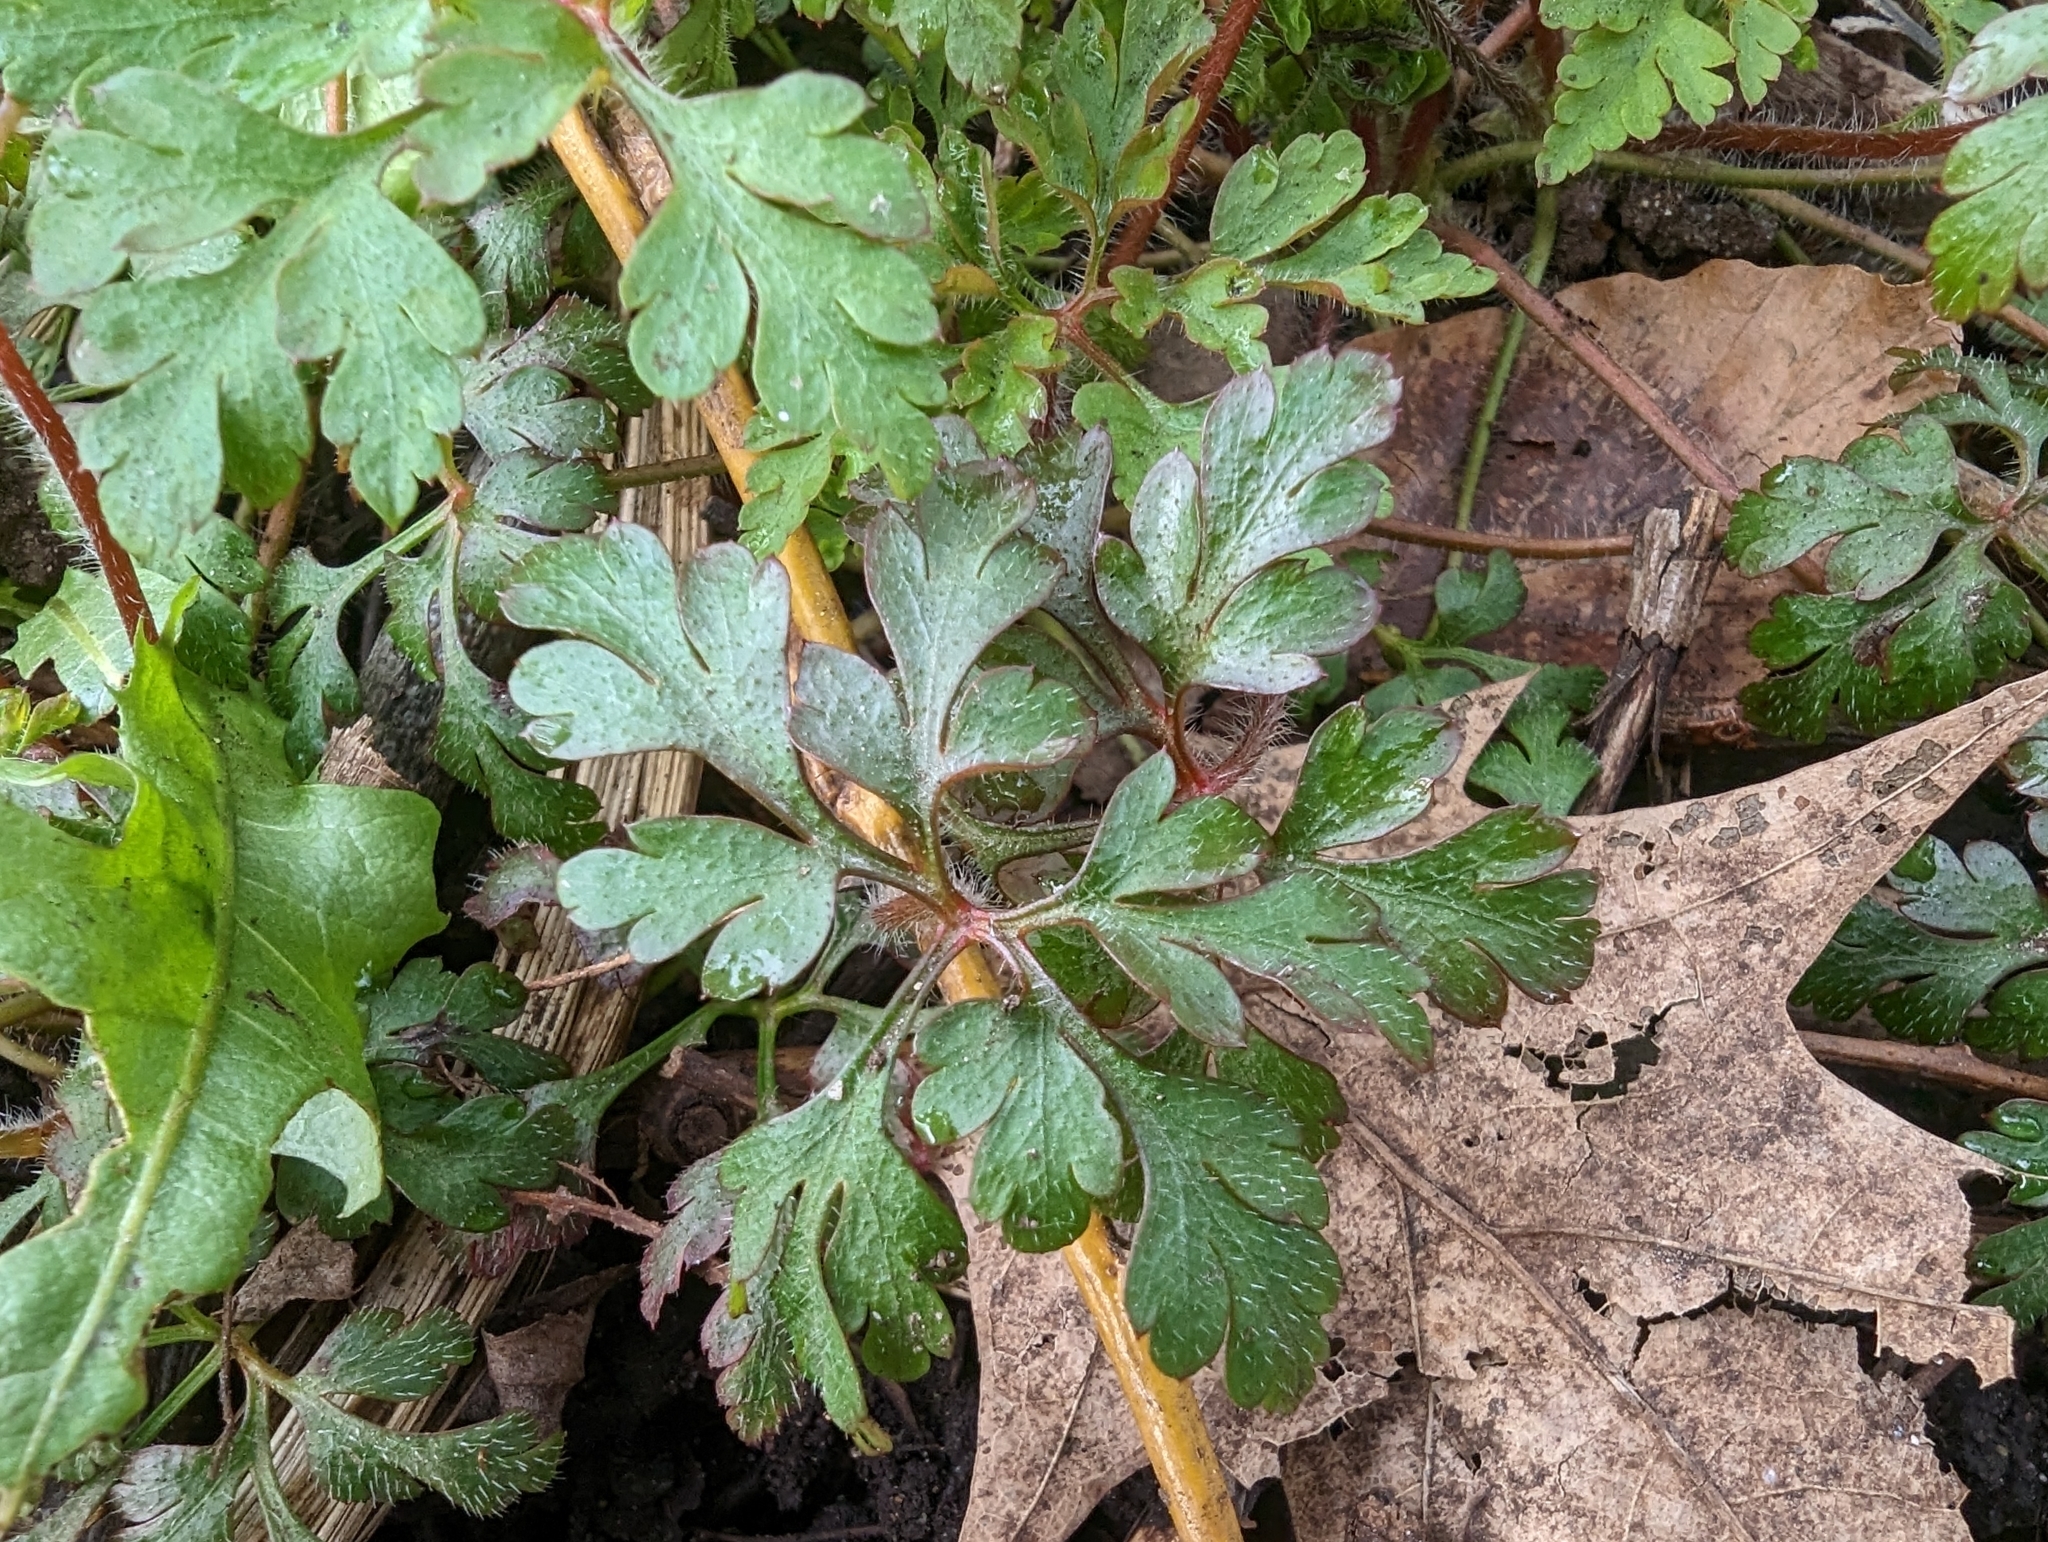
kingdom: Plantae
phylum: Tracheophyta
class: Magnoliopsida
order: Geraniales
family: Geraniaceae
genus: Geranium
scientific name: Geranium robertianum
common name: Herb-robert
